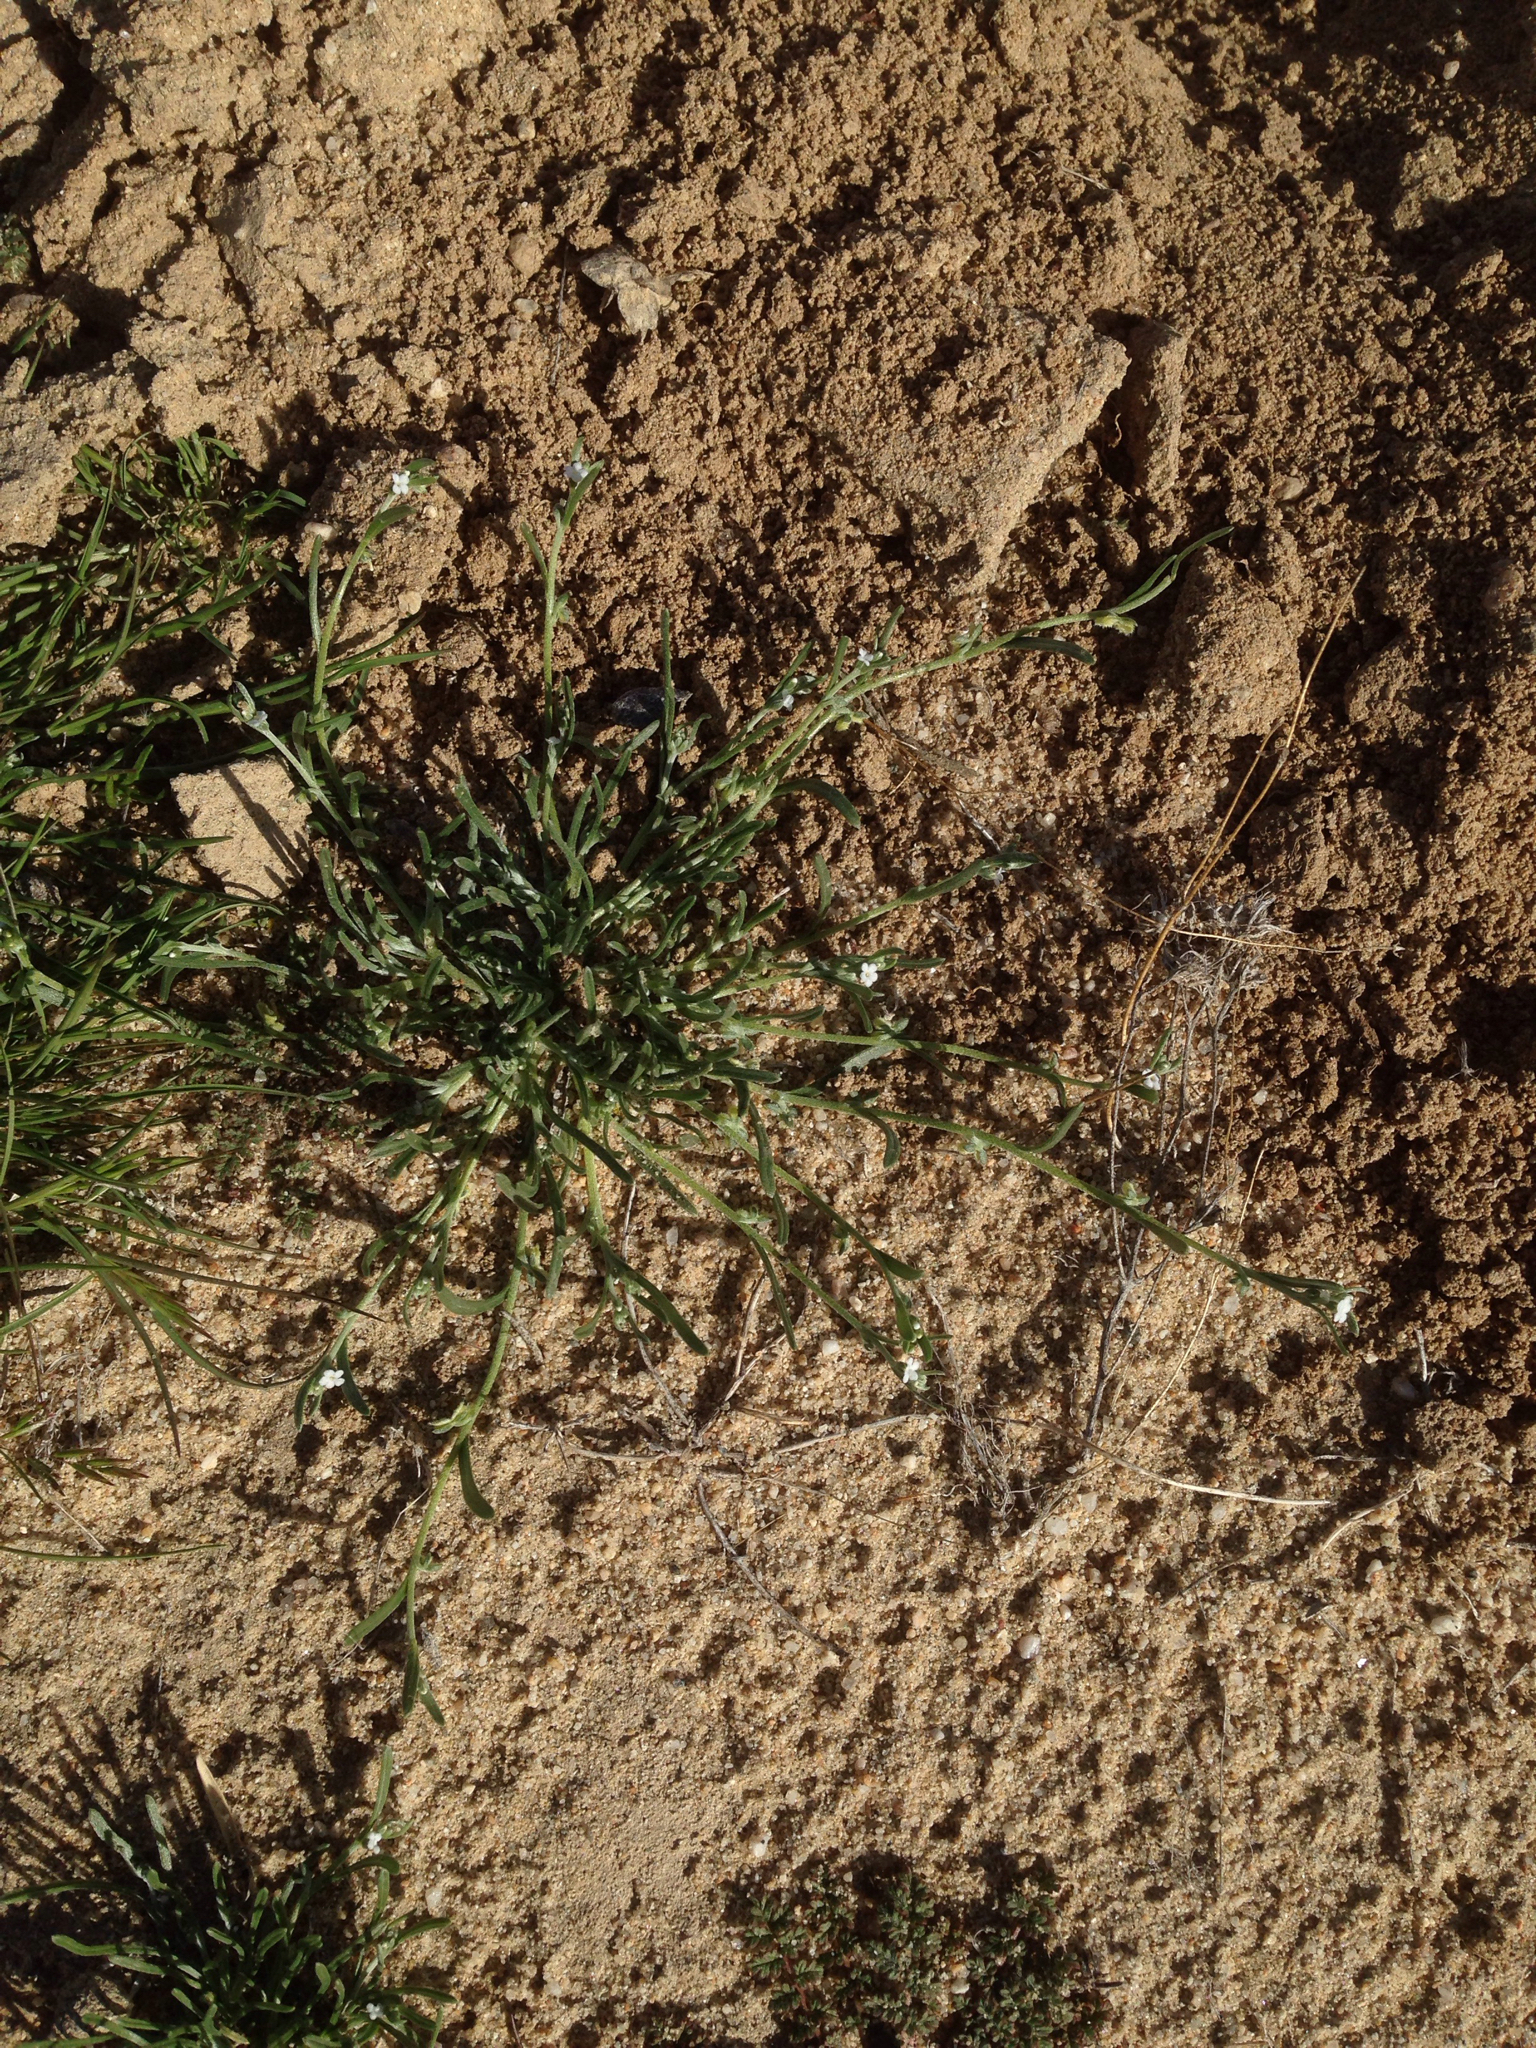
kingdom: Plantae
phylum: Tracheophyta
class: Magnoliopsida
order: Boraginales
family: Boraginaceae
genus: Pectocarya
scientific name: Pectocarya anisocarpa
